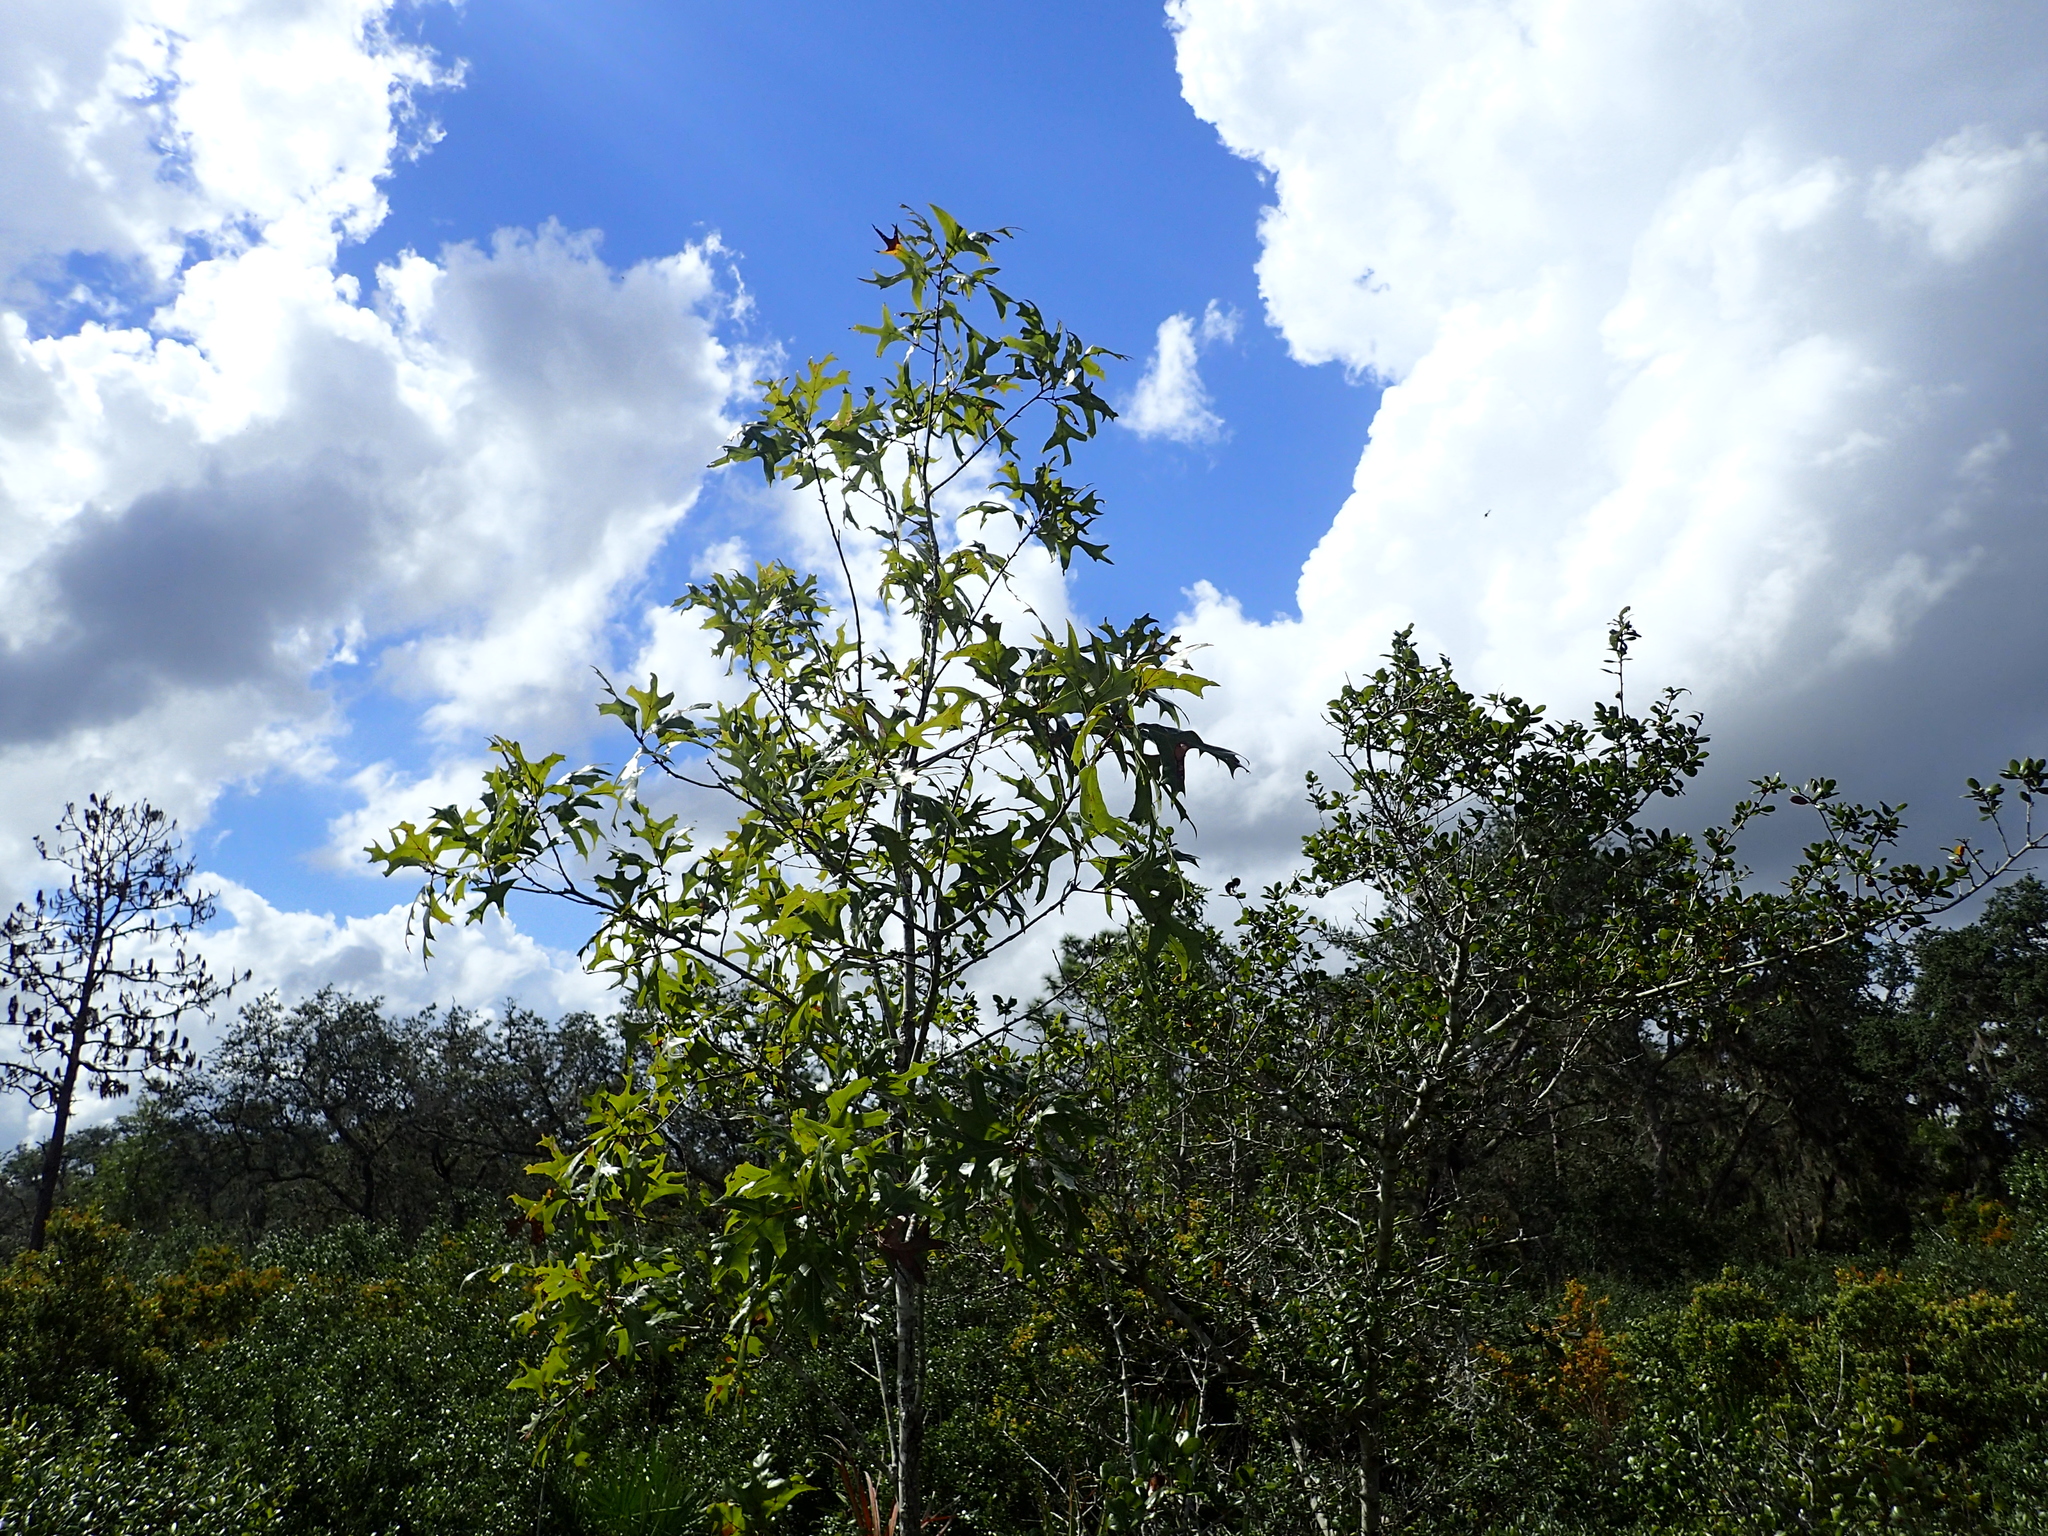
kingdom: Plantae
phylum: Tracheophyta
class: Magnoliopsida
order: Fagales
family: Fagaceae
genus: Quercus
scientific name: Quercus laevis
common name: Turkey oak
